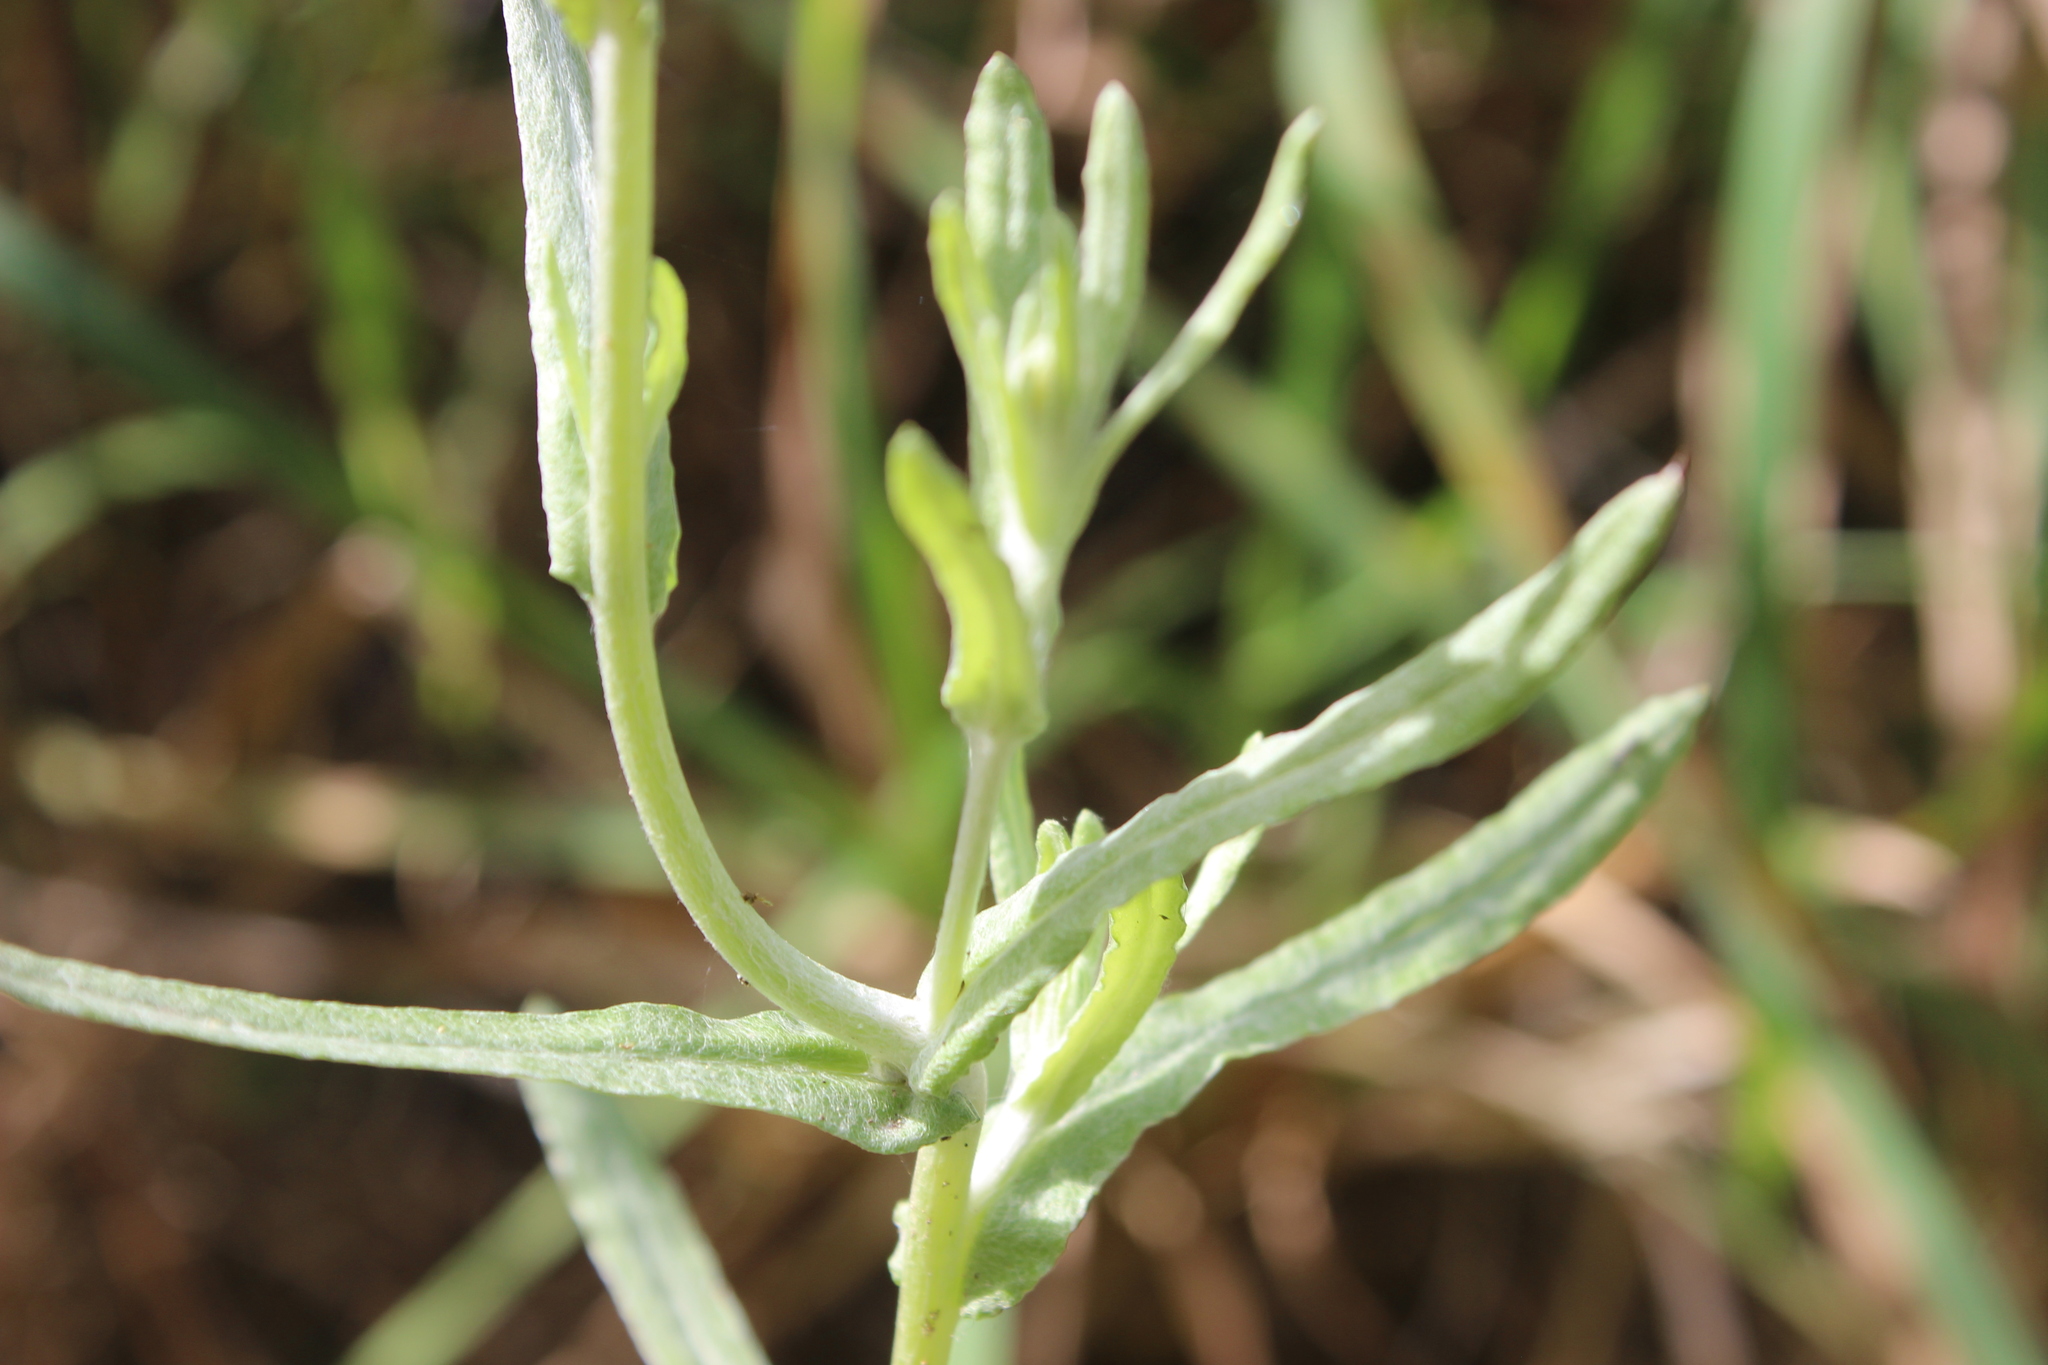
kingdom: Plantae
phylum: Tracheophyta
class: Magnoliopsida
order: Asterales
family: Asteraceae
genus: Helichrysum
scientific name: Helichrysum luteoalbum
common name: Daisy
